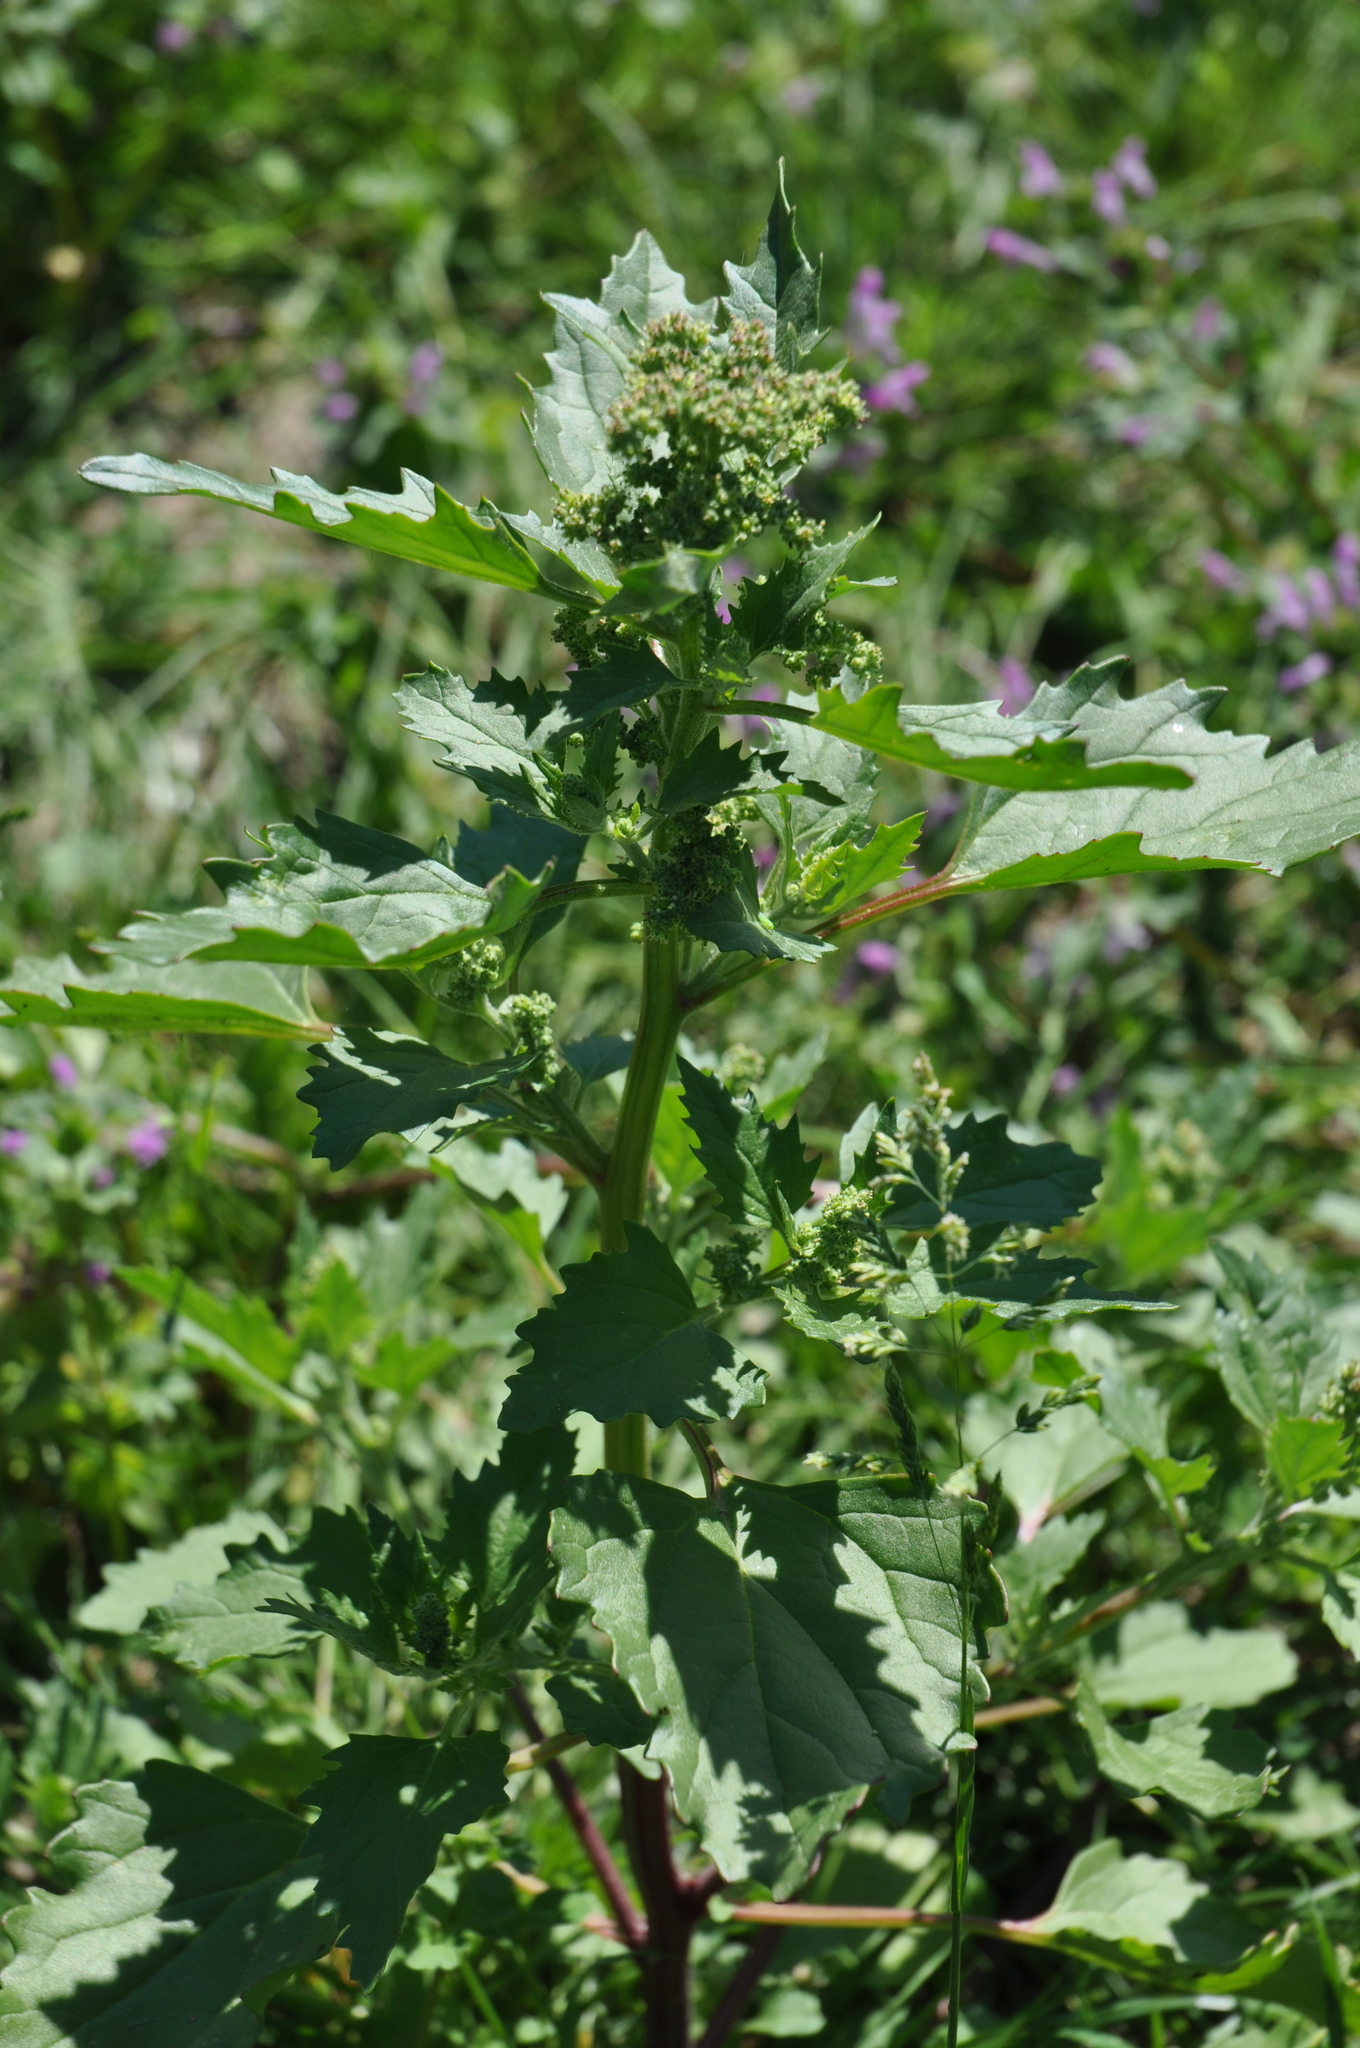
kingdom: Plantae
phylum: Tracheophyta
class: Magnoliopsida
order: Caryophyllales
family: Amaranthaceae
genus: Chenopodiastrum
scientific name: Chenopodiastrum murale
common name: Sowbane
